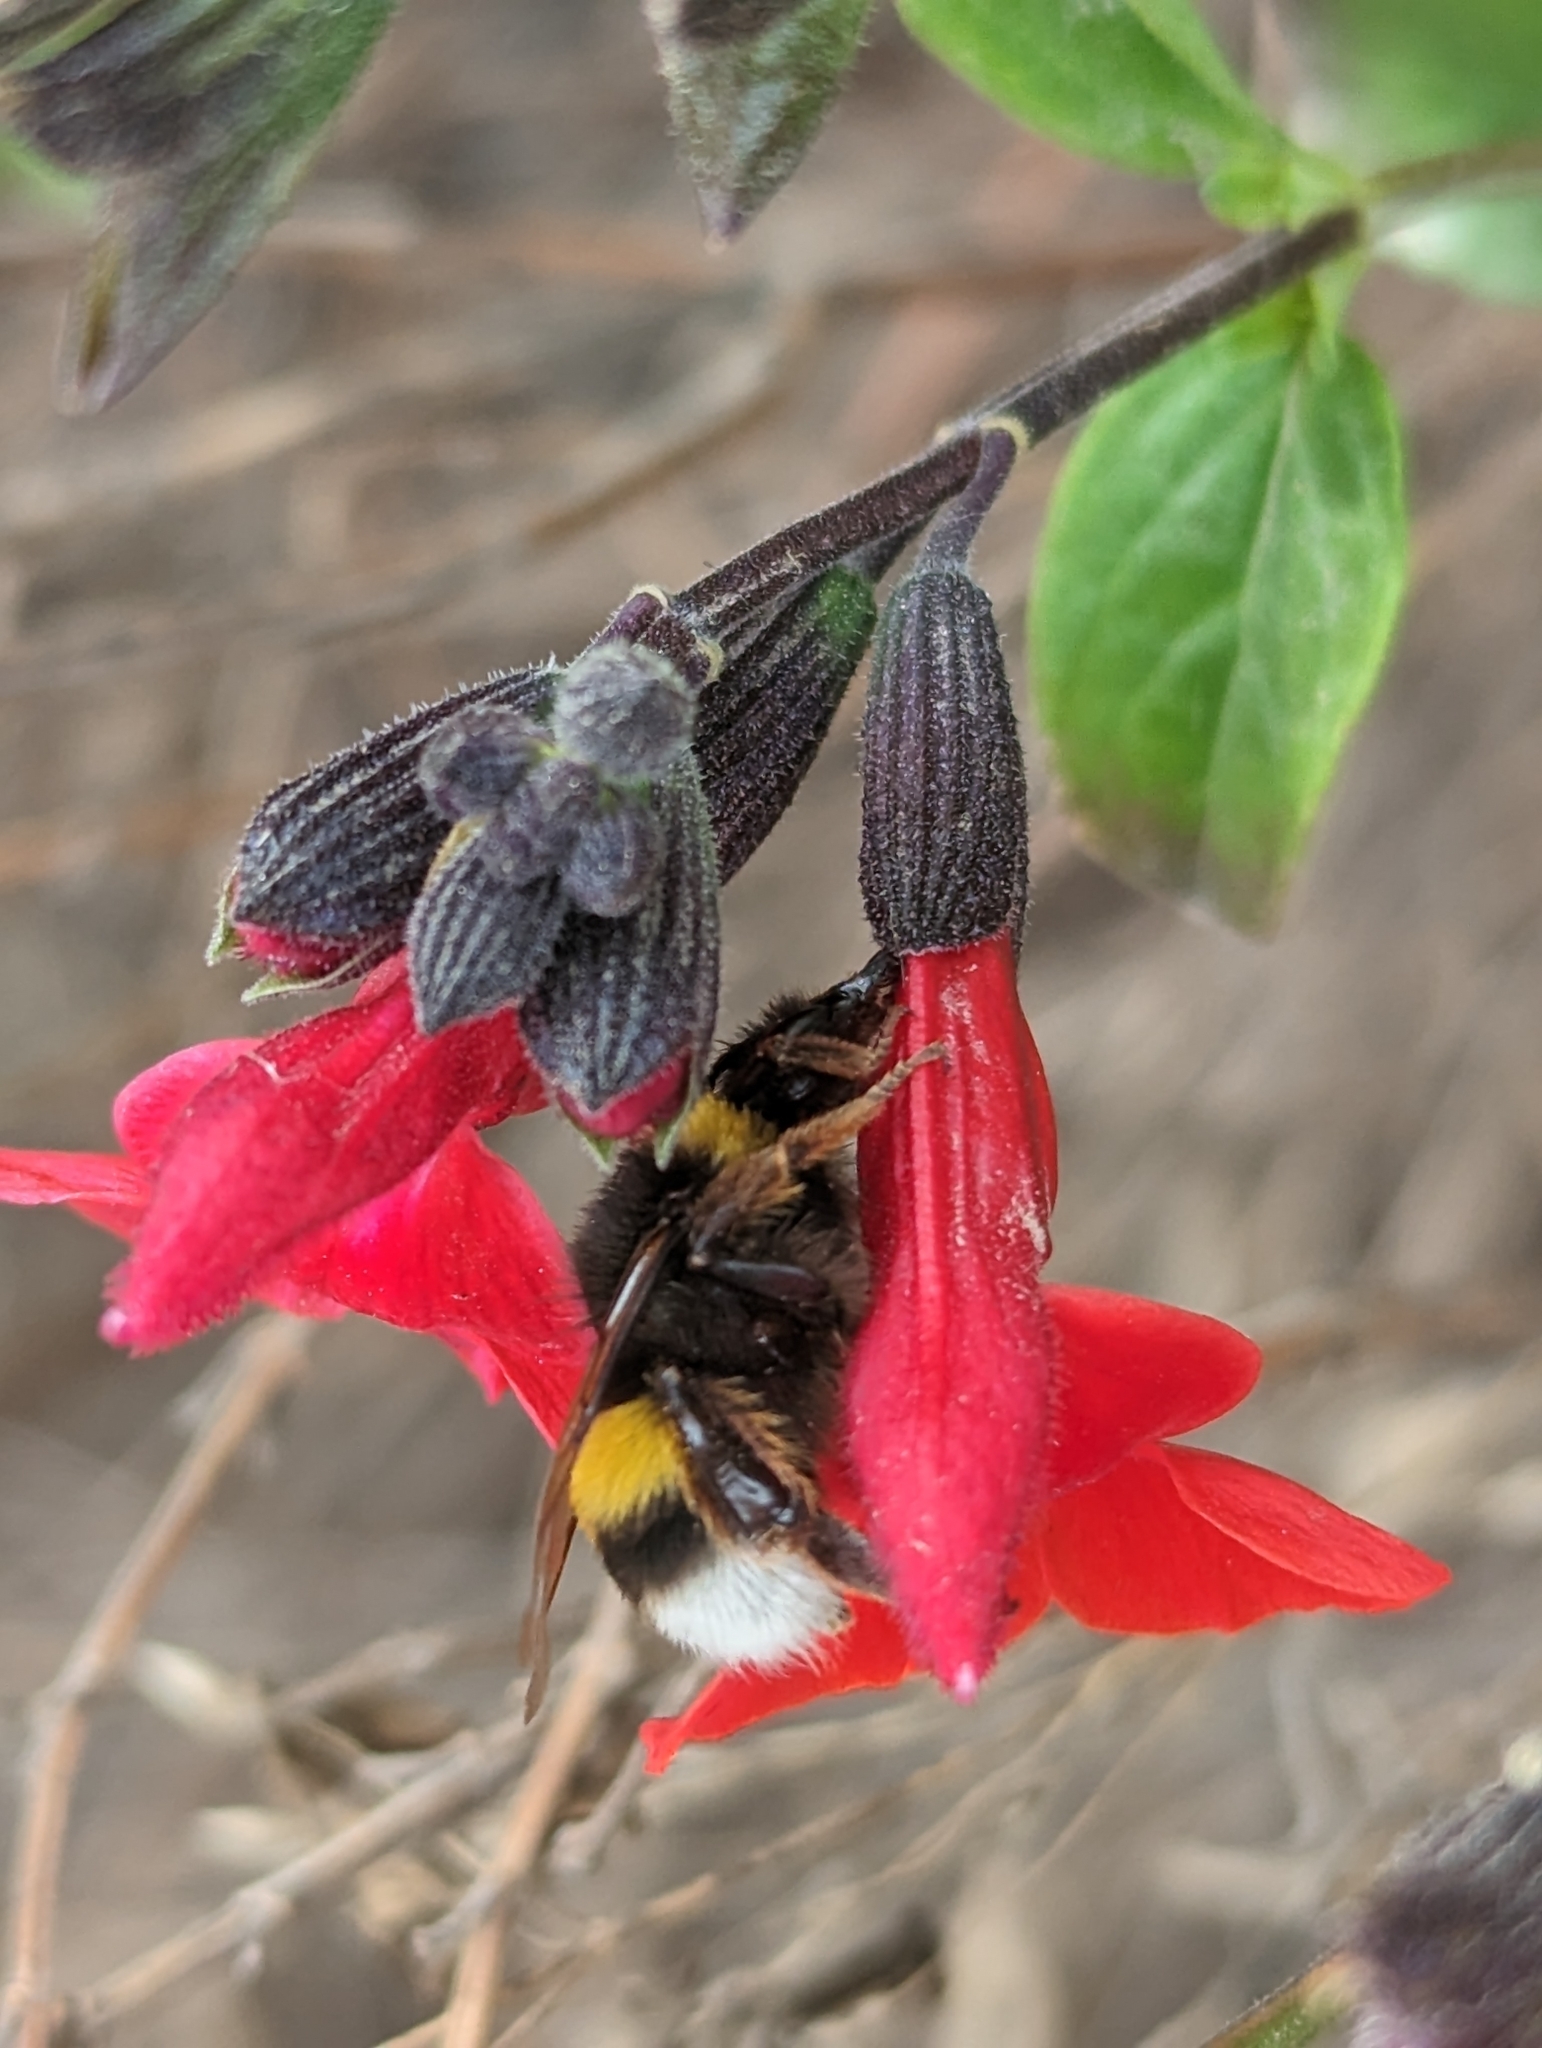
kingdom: Animalia
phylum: Arthropoda
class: Insecta
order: Hymenoptera
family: Apidae
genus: Bombus
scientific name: Bombus terrestris
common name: Buff-tailed bumblebee
